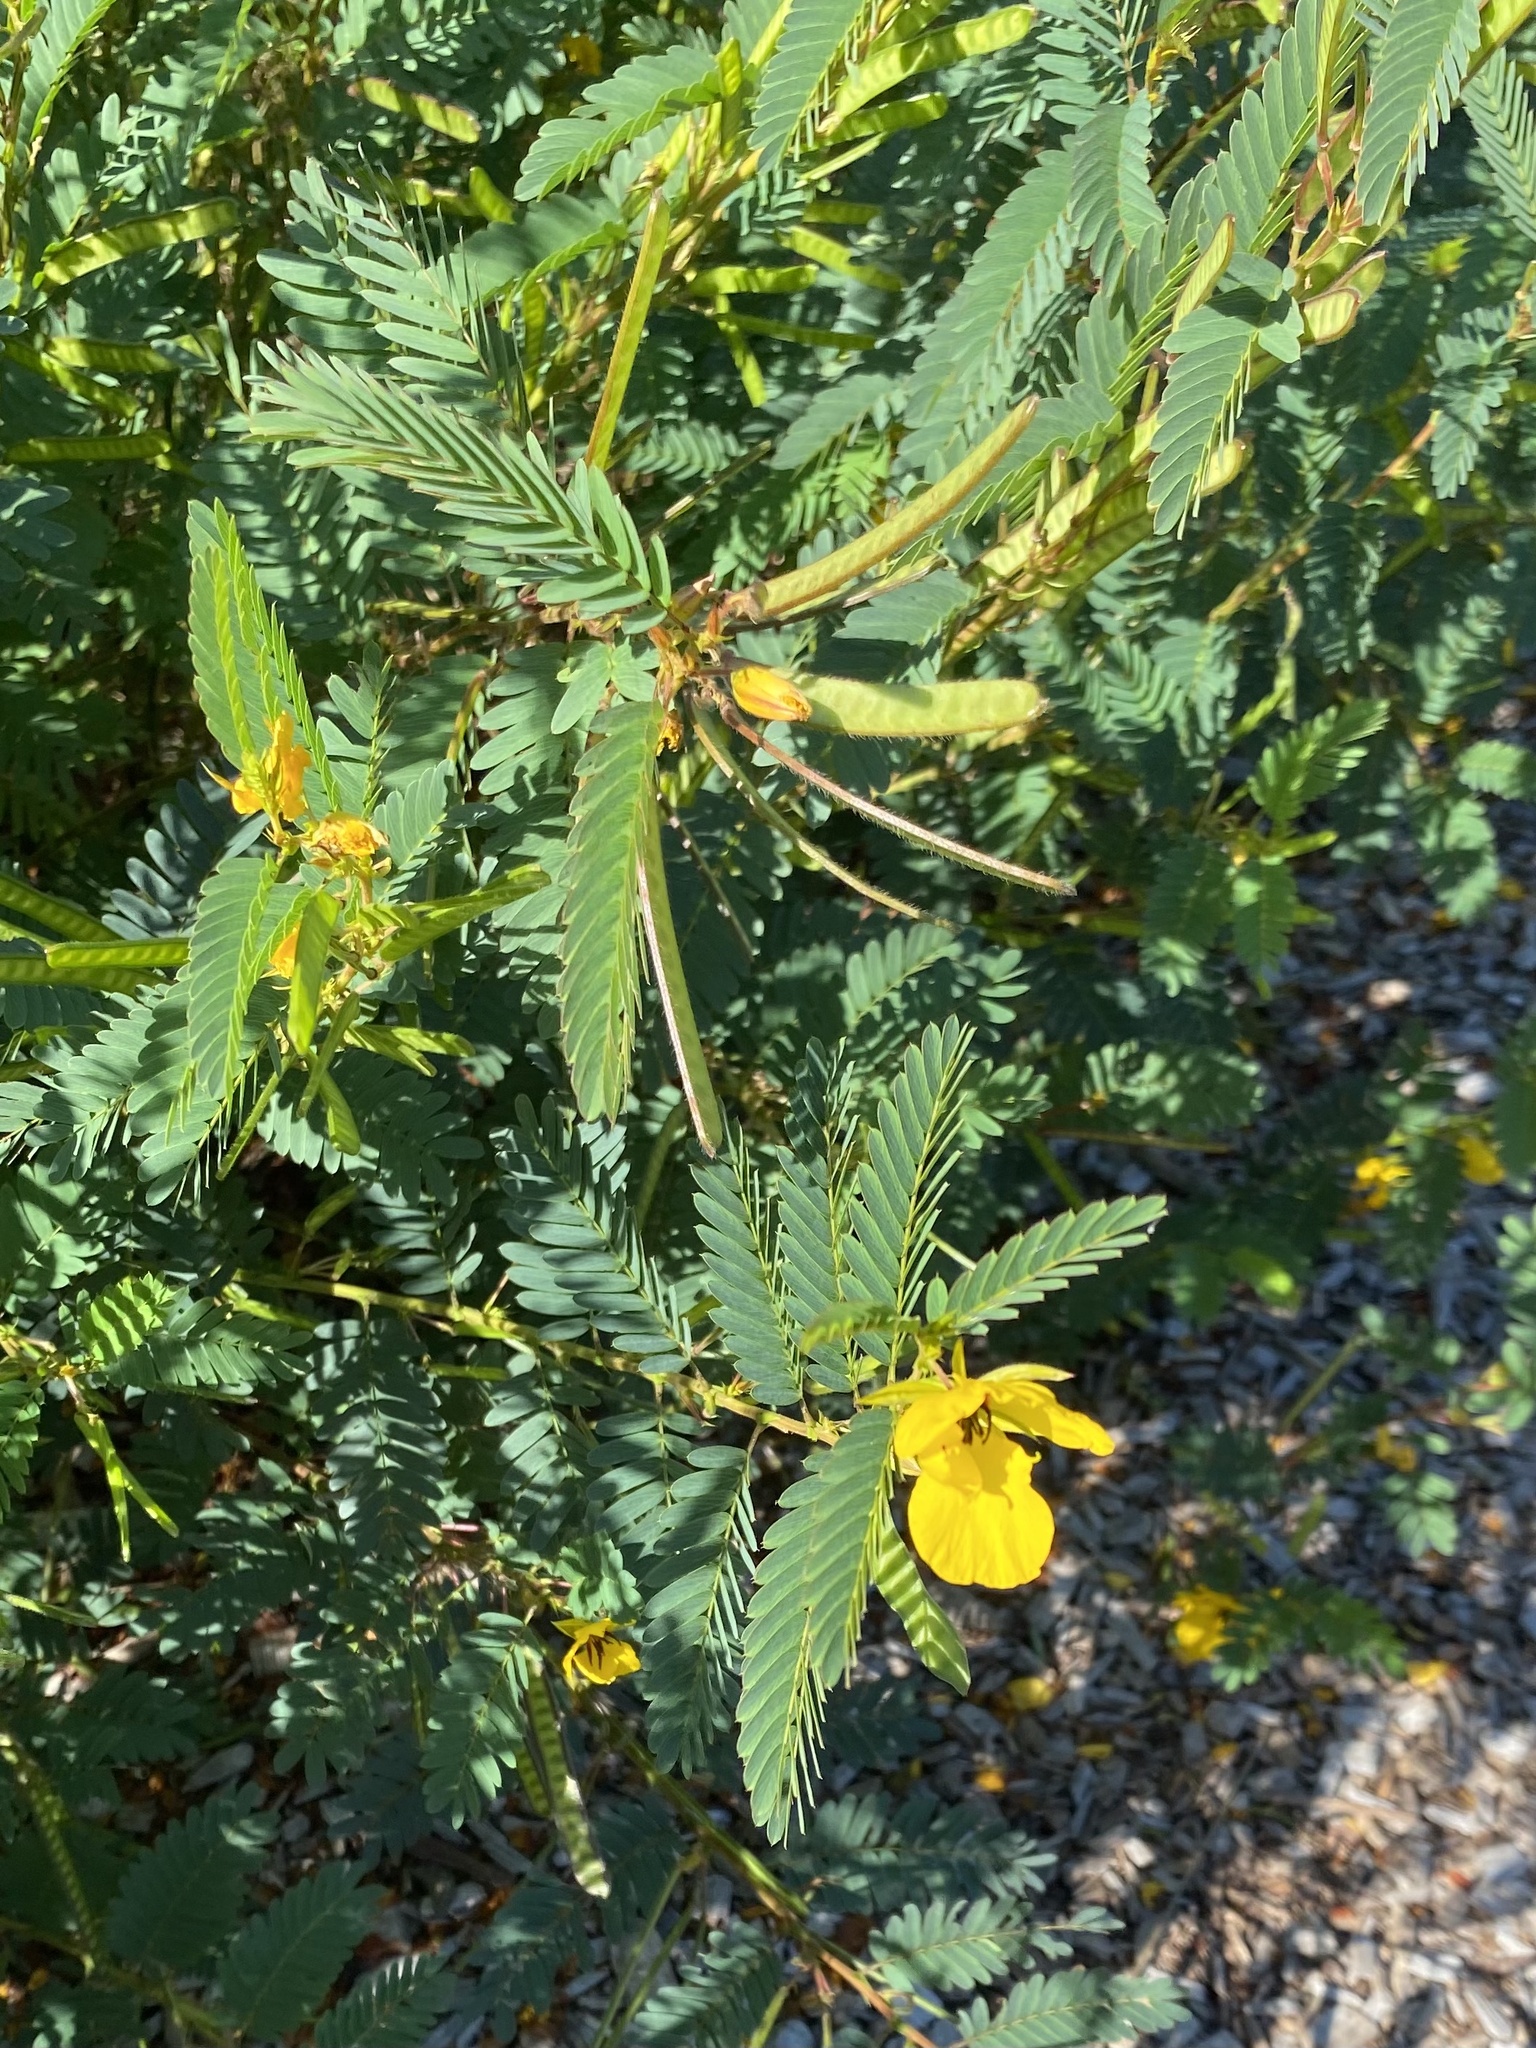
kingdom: Plantae
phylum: Tracheophyta
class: Magnoliopsida
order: Fabales
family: Fabaceae
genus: Chamaecrista
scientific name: Chamaecrista fasciculata
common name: Golden cassia
